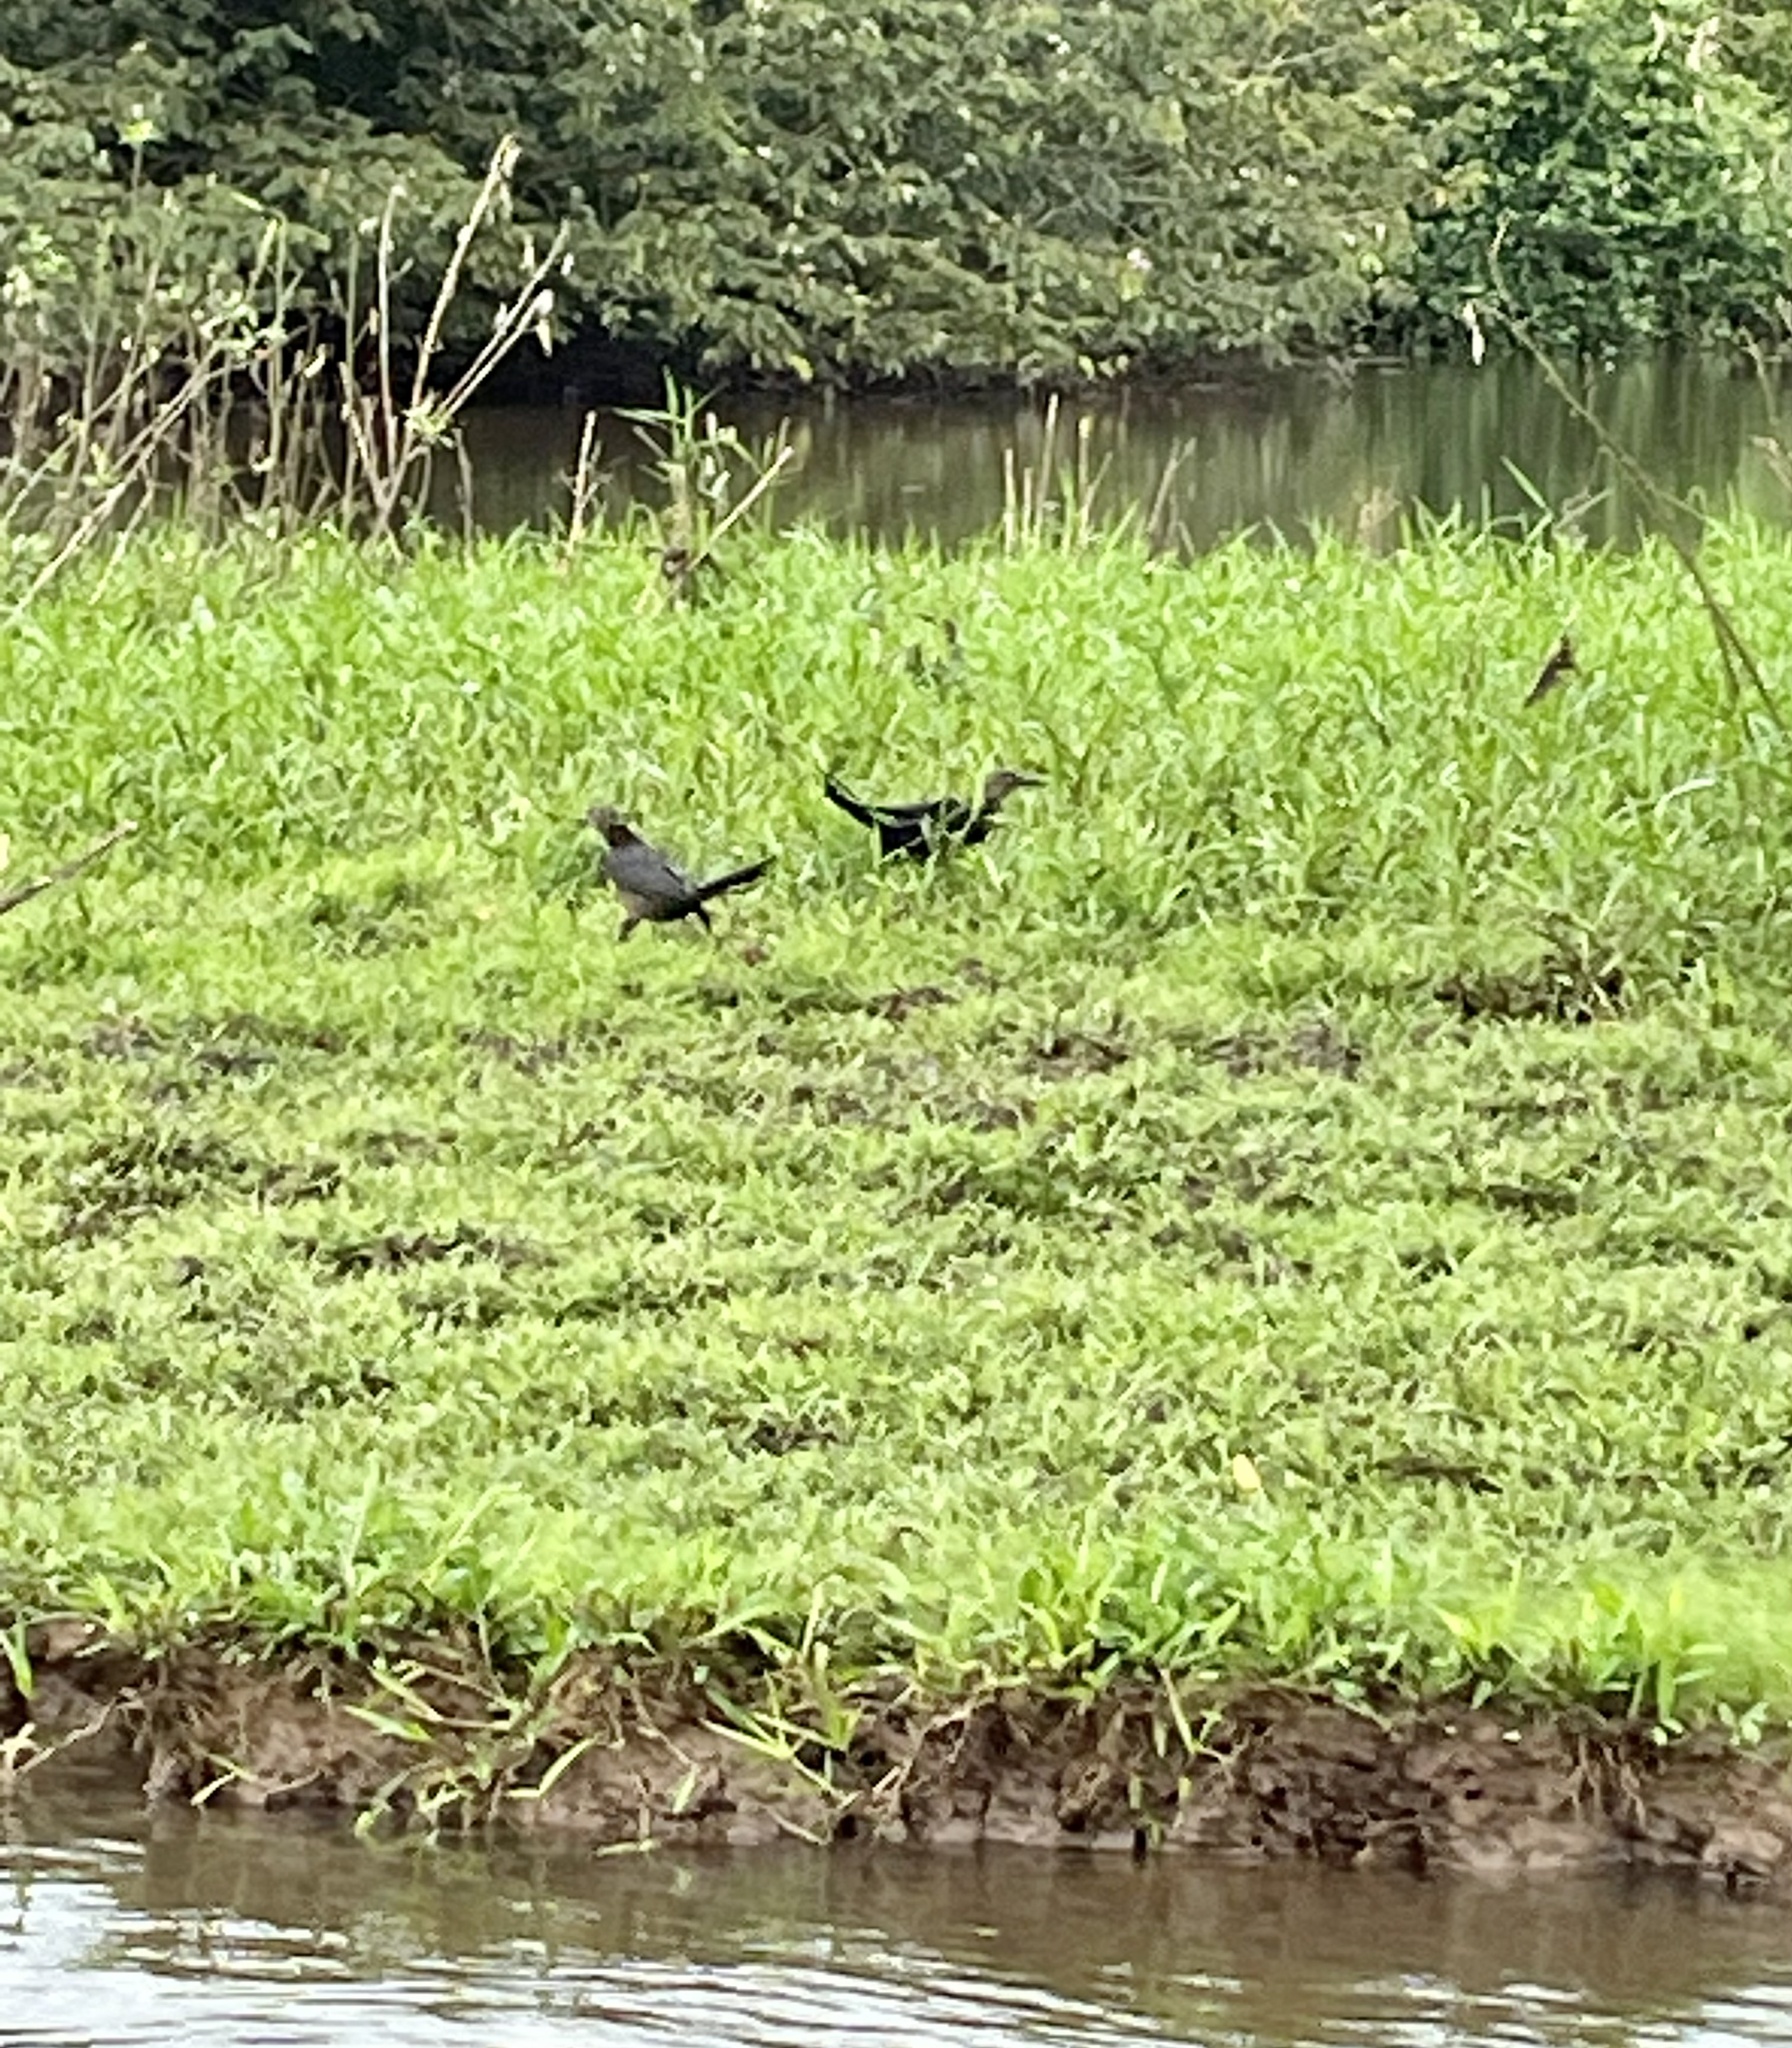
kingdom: Animalia
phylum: Chordata
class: Aves
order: Passeriformes
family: Icteridae
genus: Quiscalus
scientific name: Quiscalus mexicanus
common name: Great-tailed grackle
